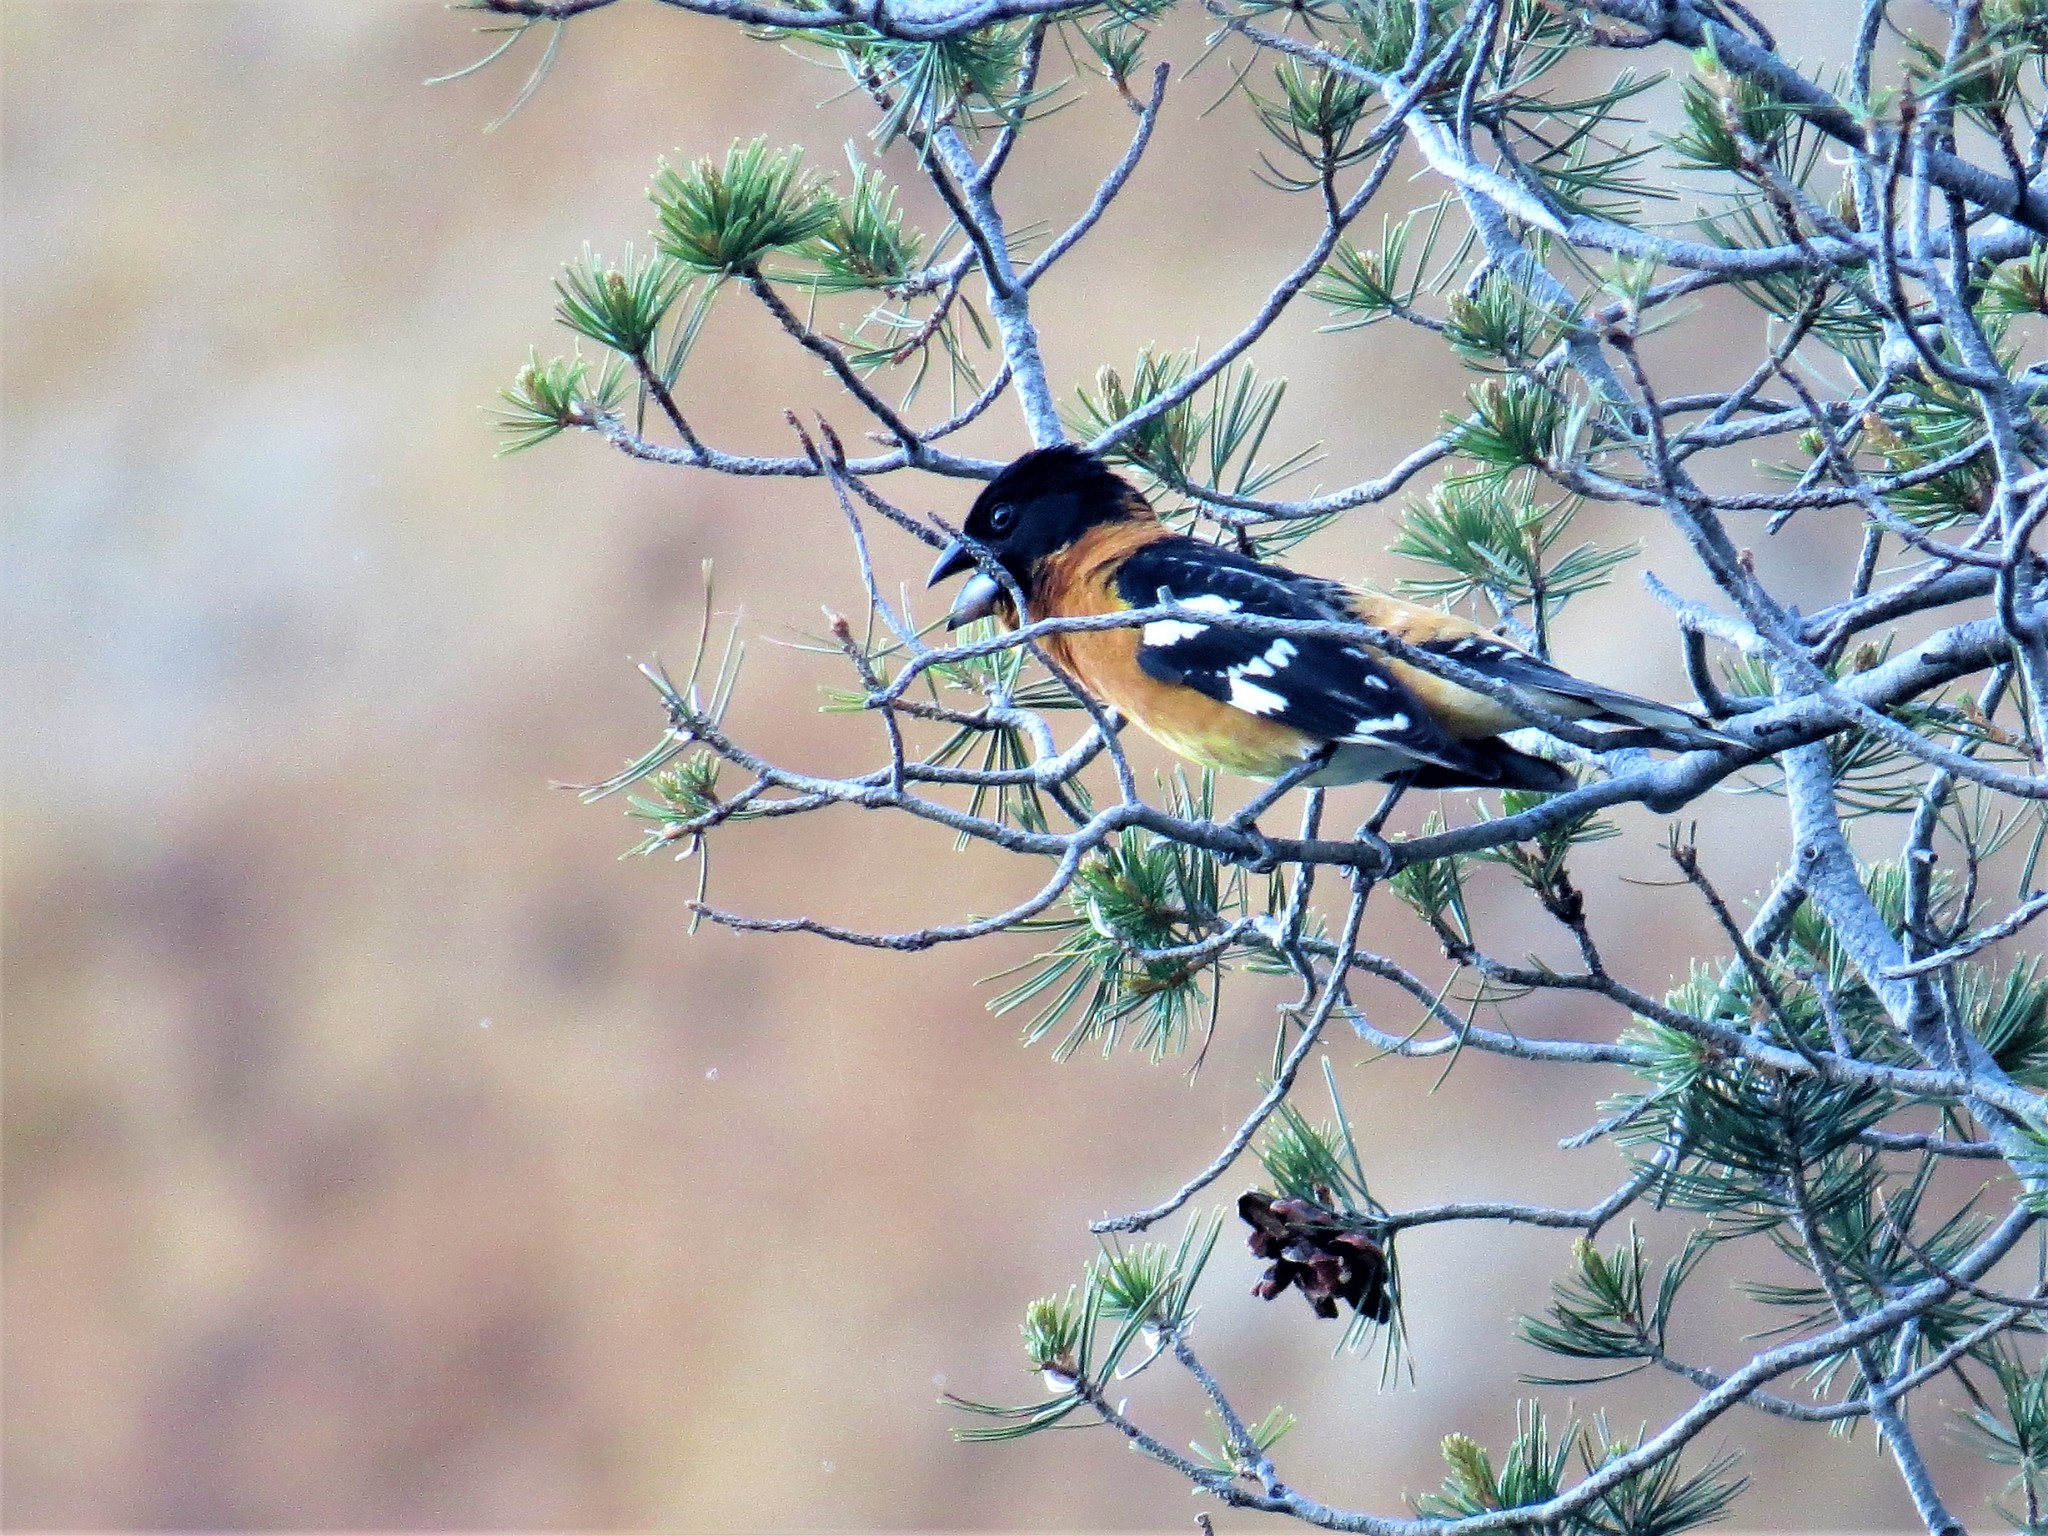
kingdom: Animalia
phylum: Chordata
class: Aves
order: Passeriformes
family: Cardinalidae
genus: Pheucticus
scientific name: Pheucticus melanocephalus
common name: Black-headed grosbeak
